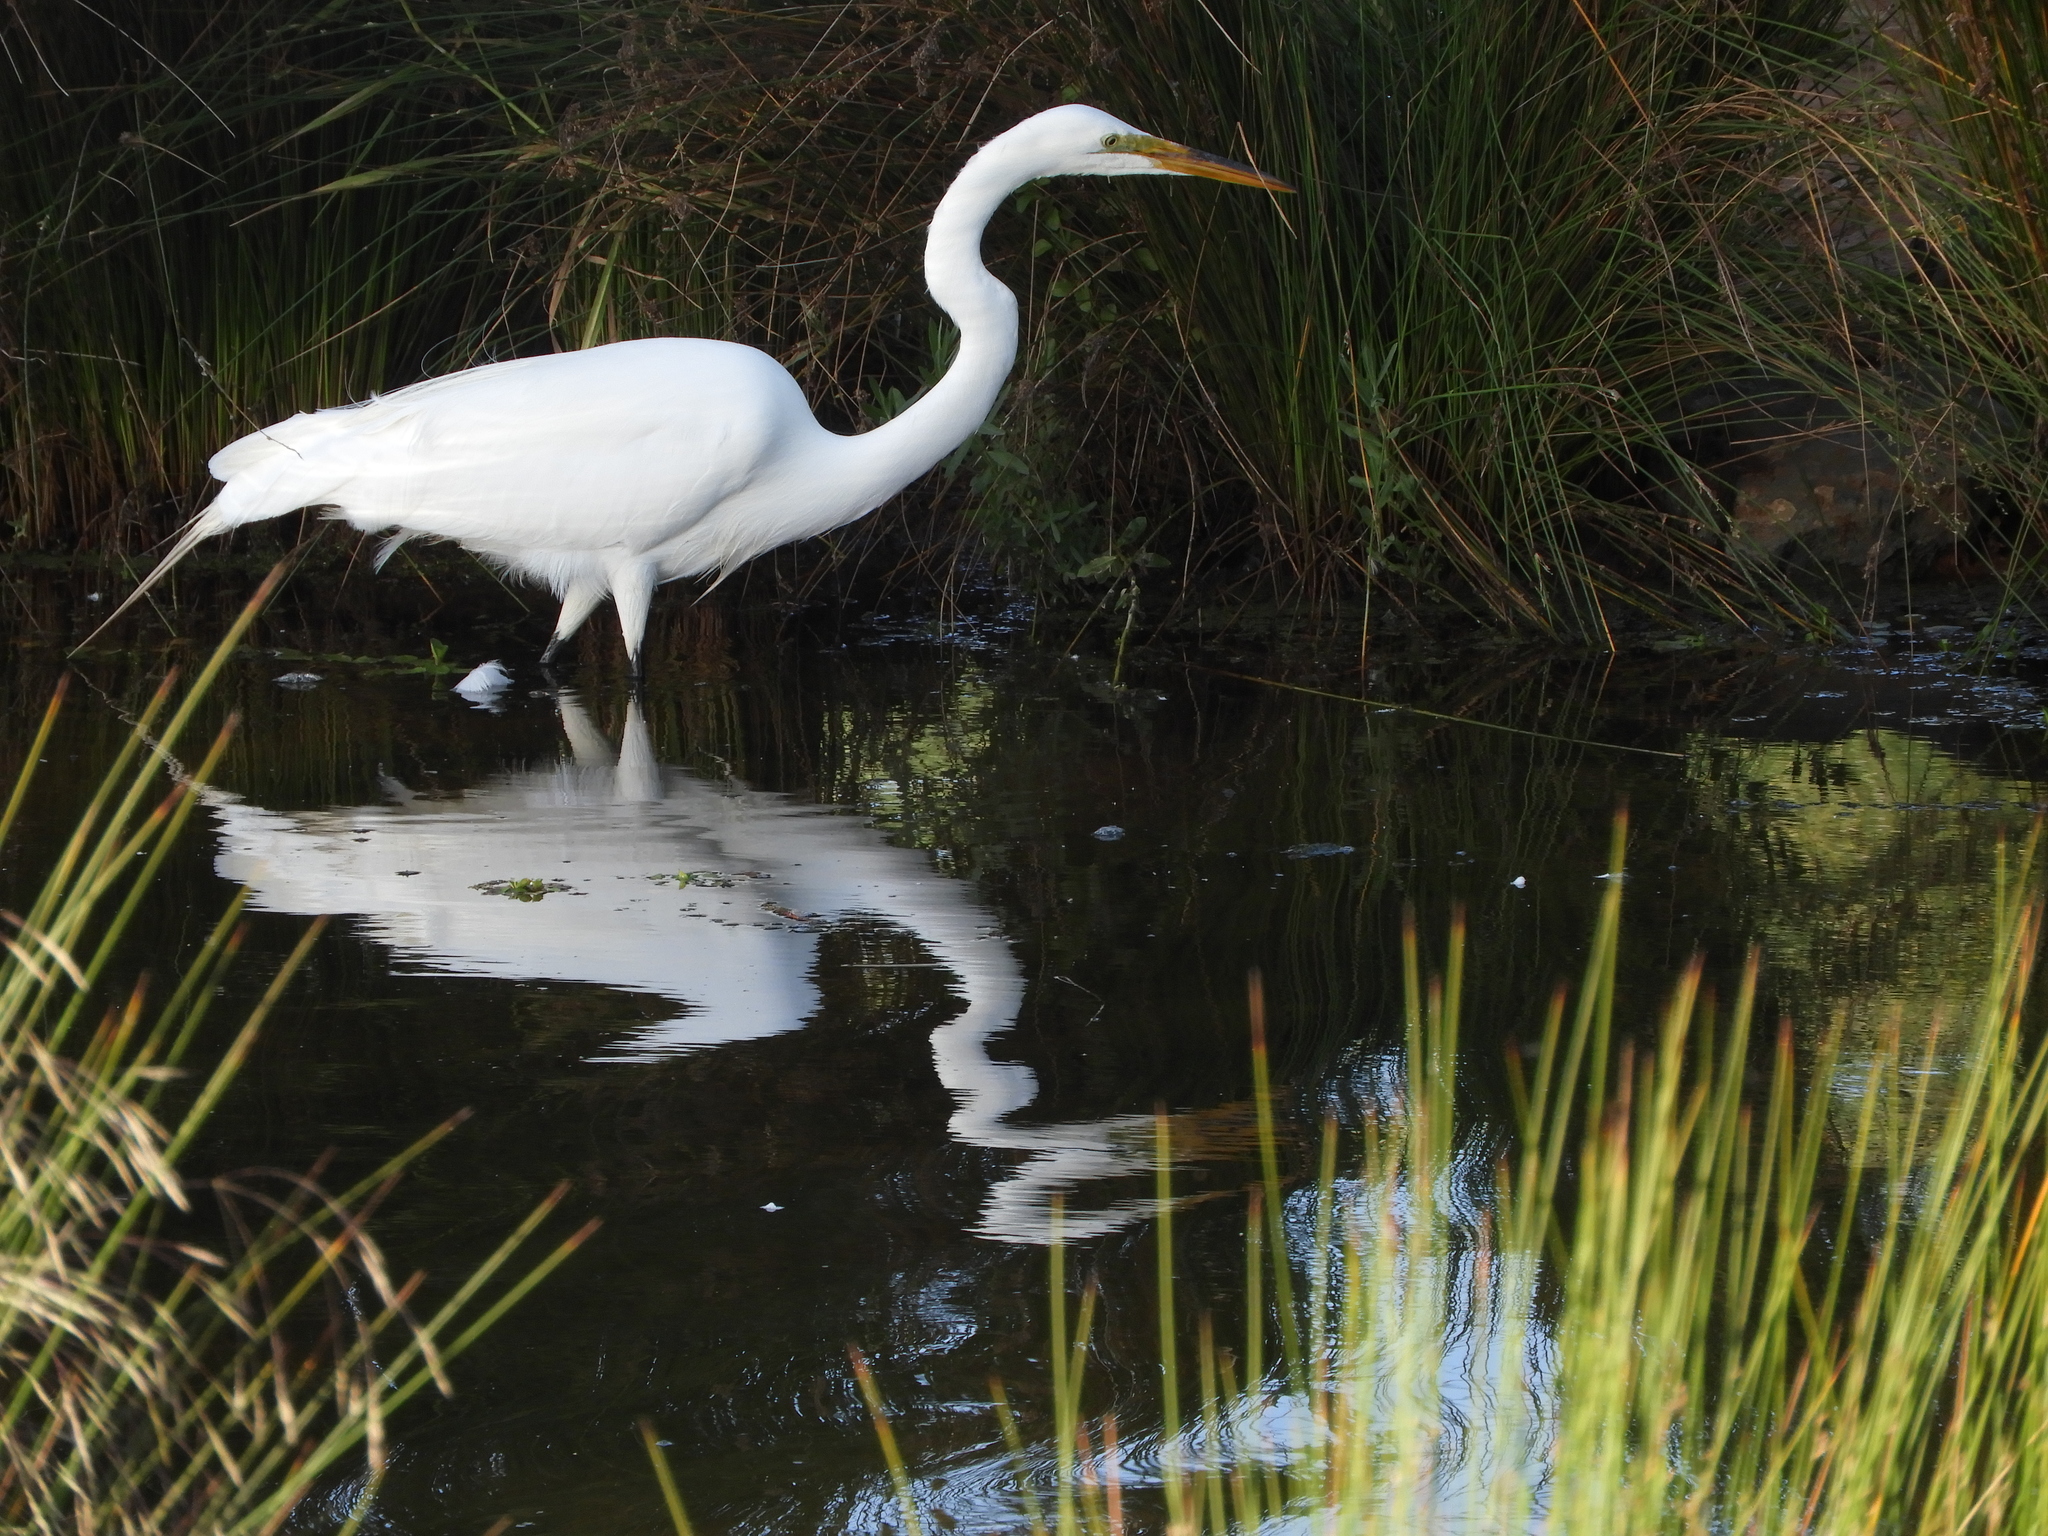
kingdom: Animalia
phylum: Chordata
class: Aves
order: Pelecaniformes
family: Ardeidae
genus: Ardea
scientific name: Ardea alba
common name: Great egret
